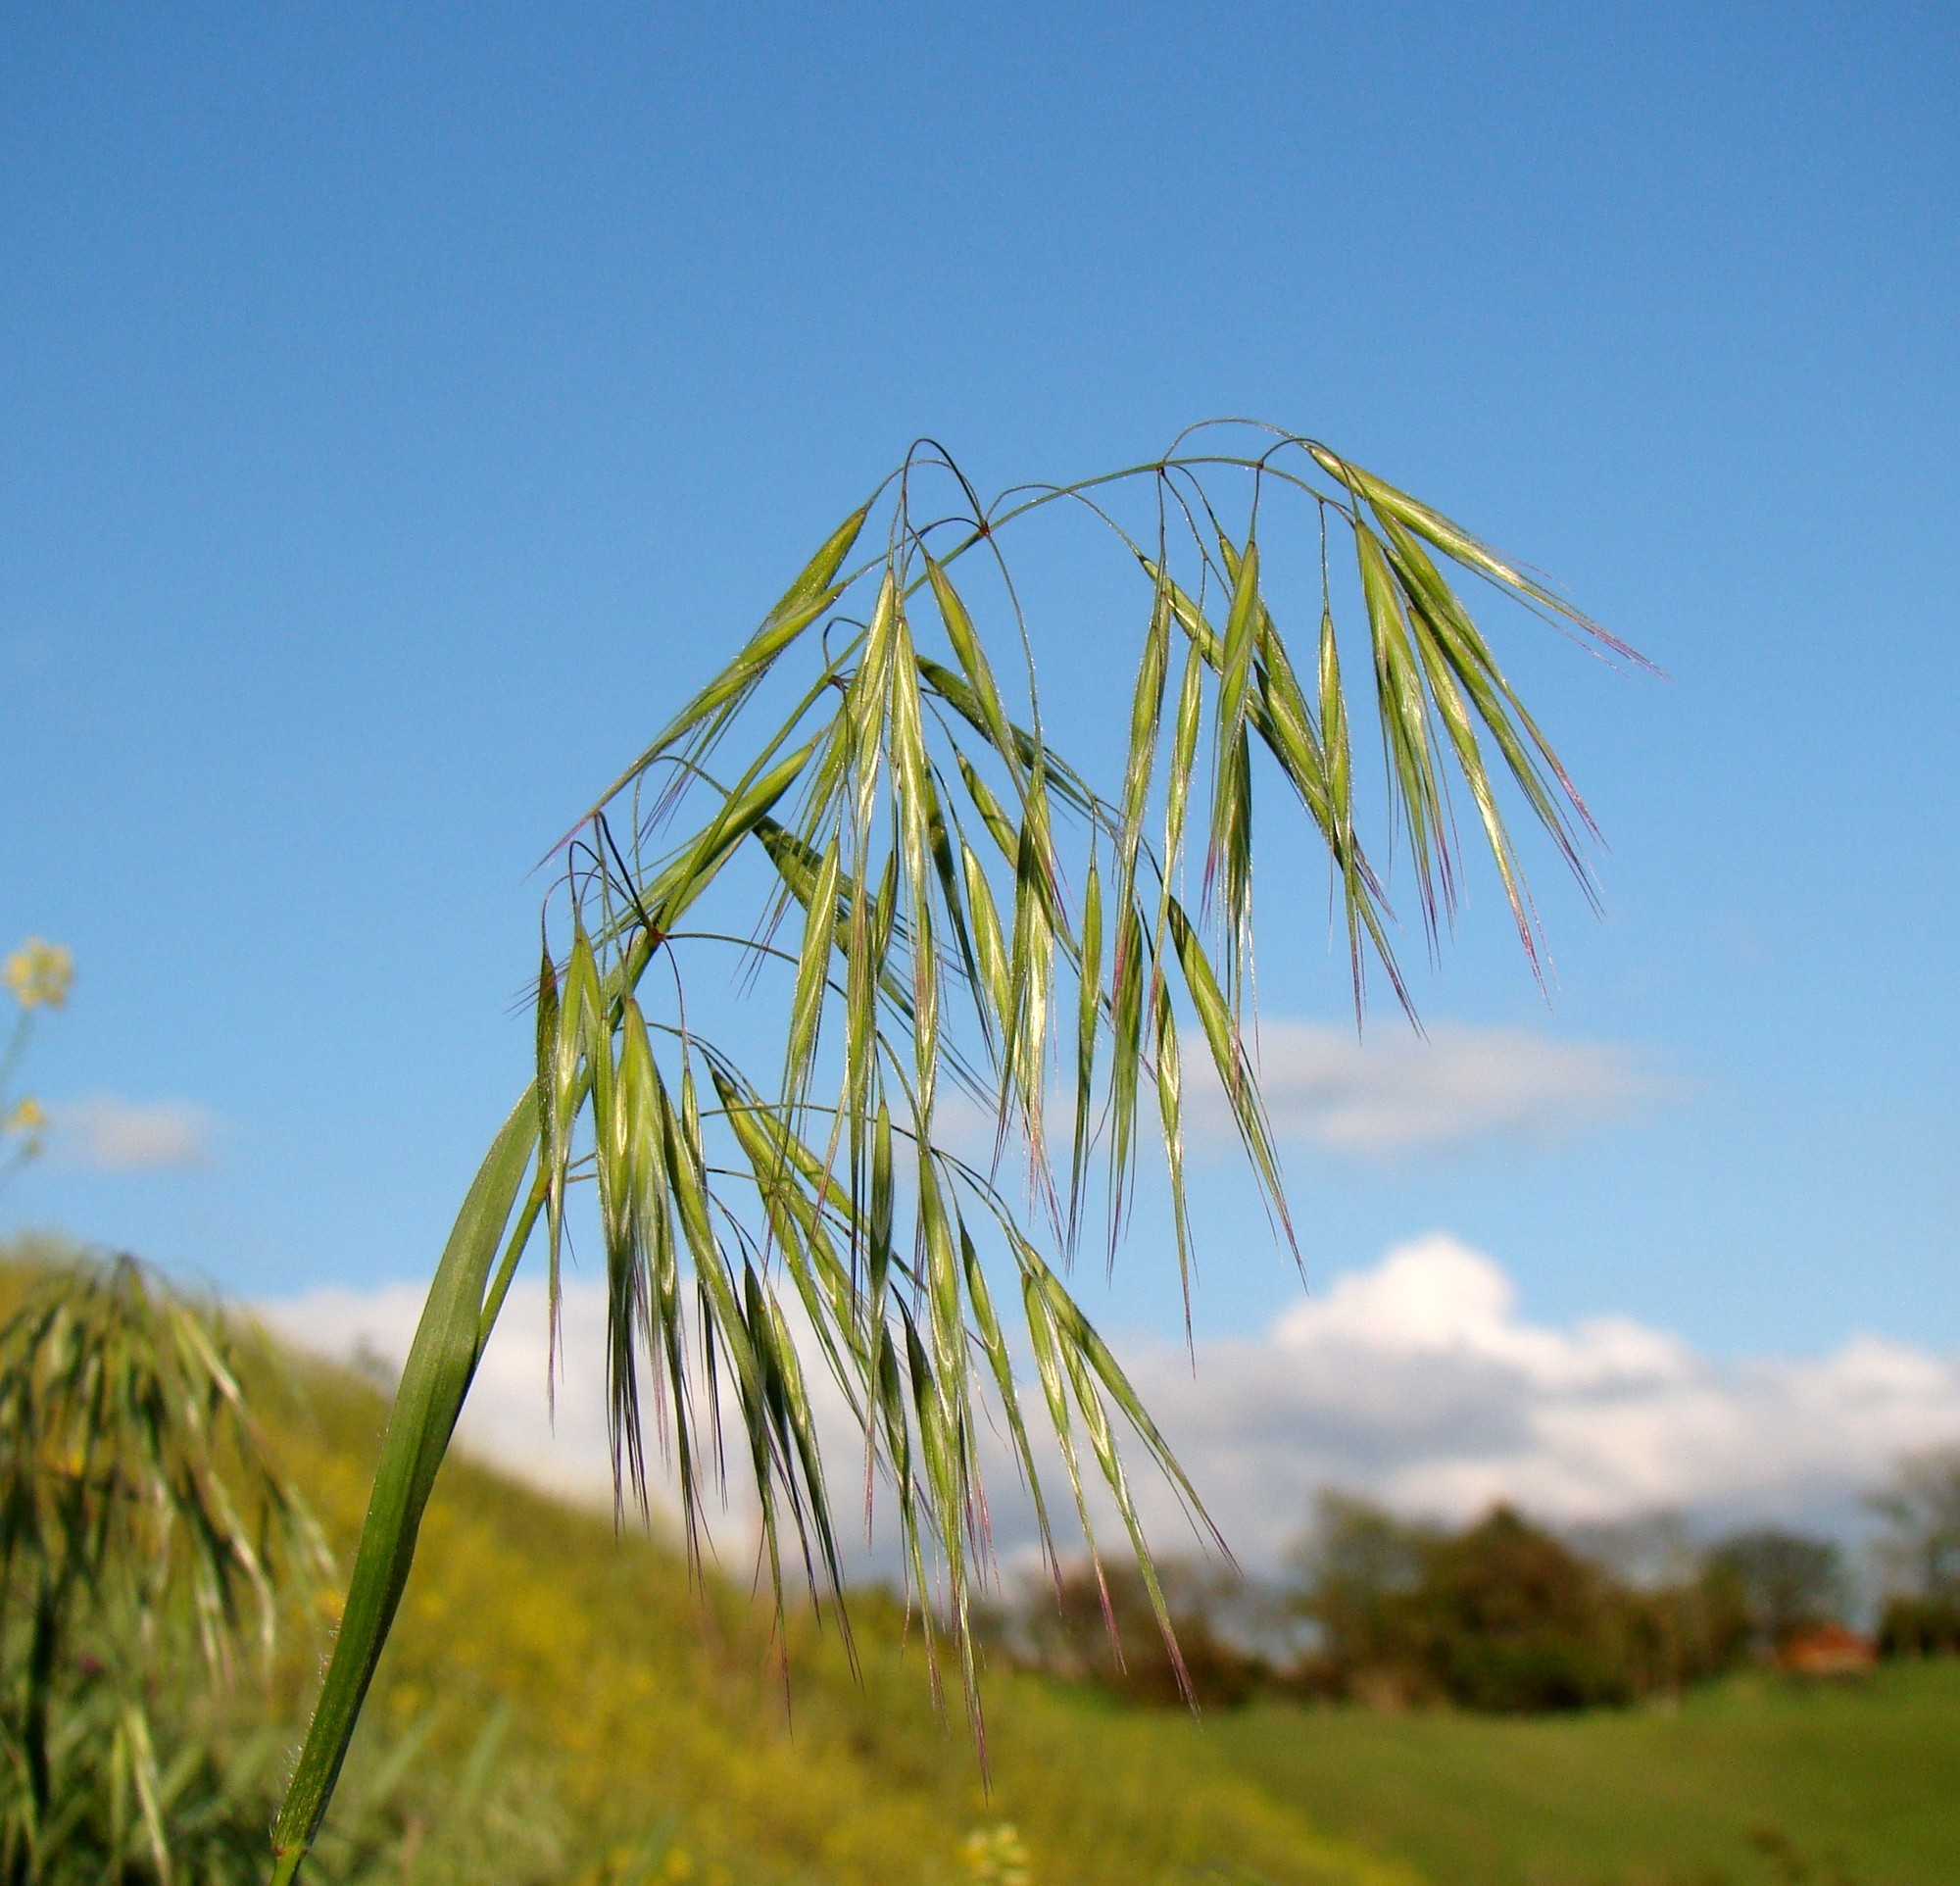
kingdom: Plantae
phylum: Tracheophyta
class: Liliopsida
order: Poales
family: Poaceae
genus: Bromus
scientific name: Bromus tectorum
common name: Cheatgrass
